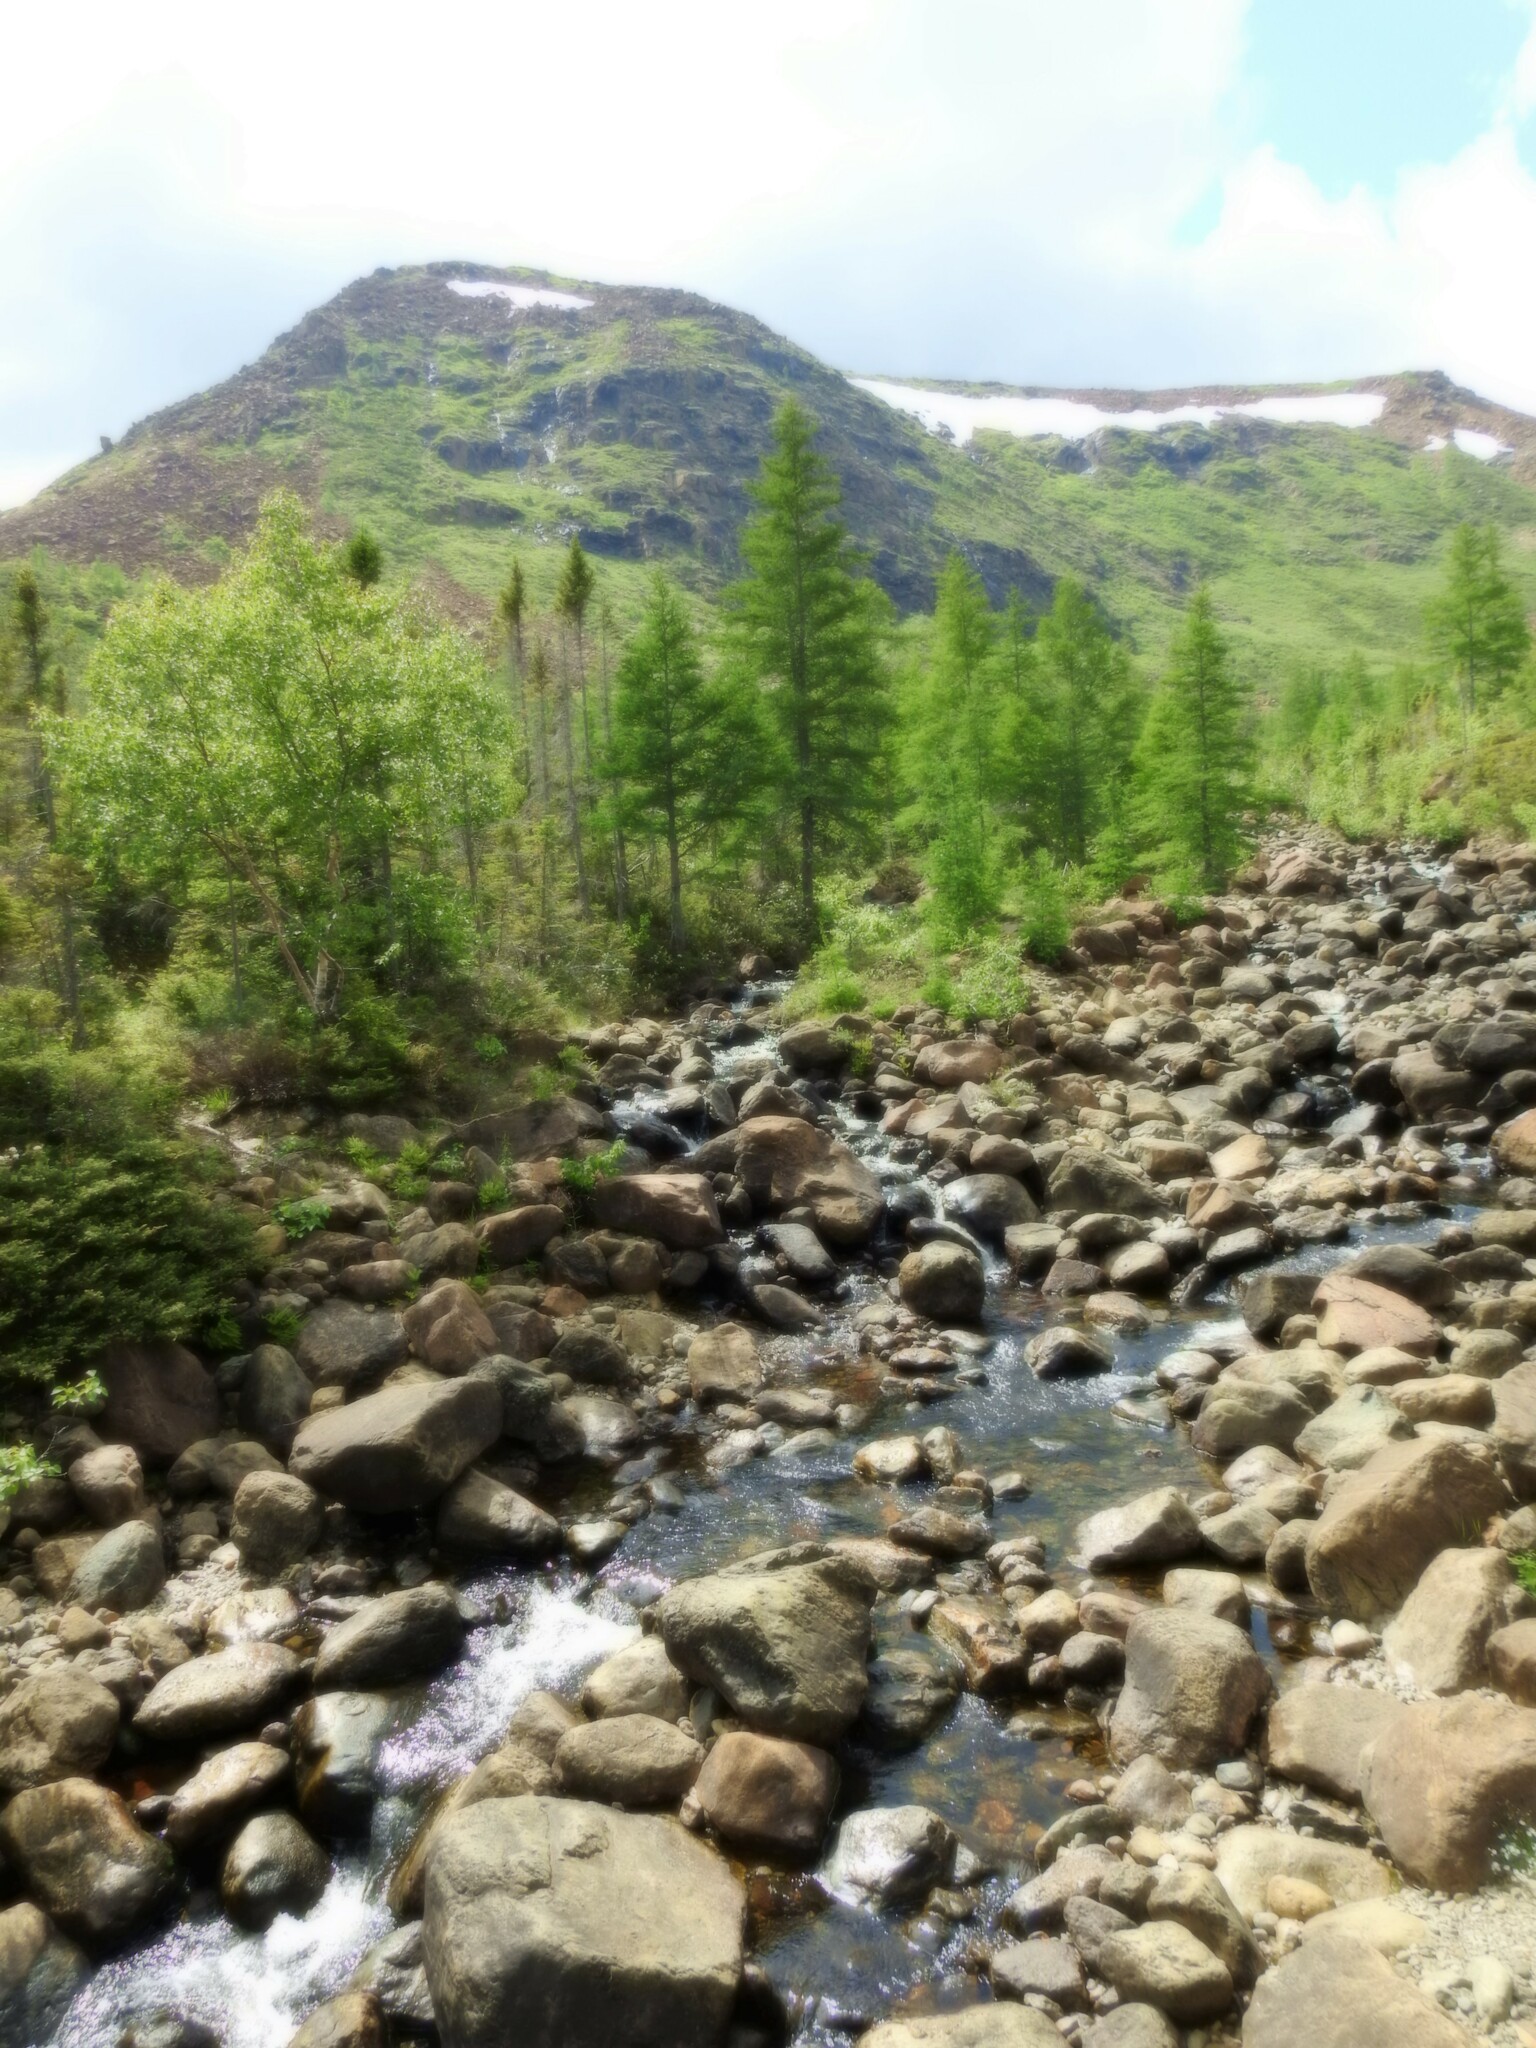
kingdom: Plantae
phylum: Tracheophyta
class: Pinopsida
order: Pinales
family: Pinaceae
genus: Larix
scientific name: Larix laricina
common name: American larch
